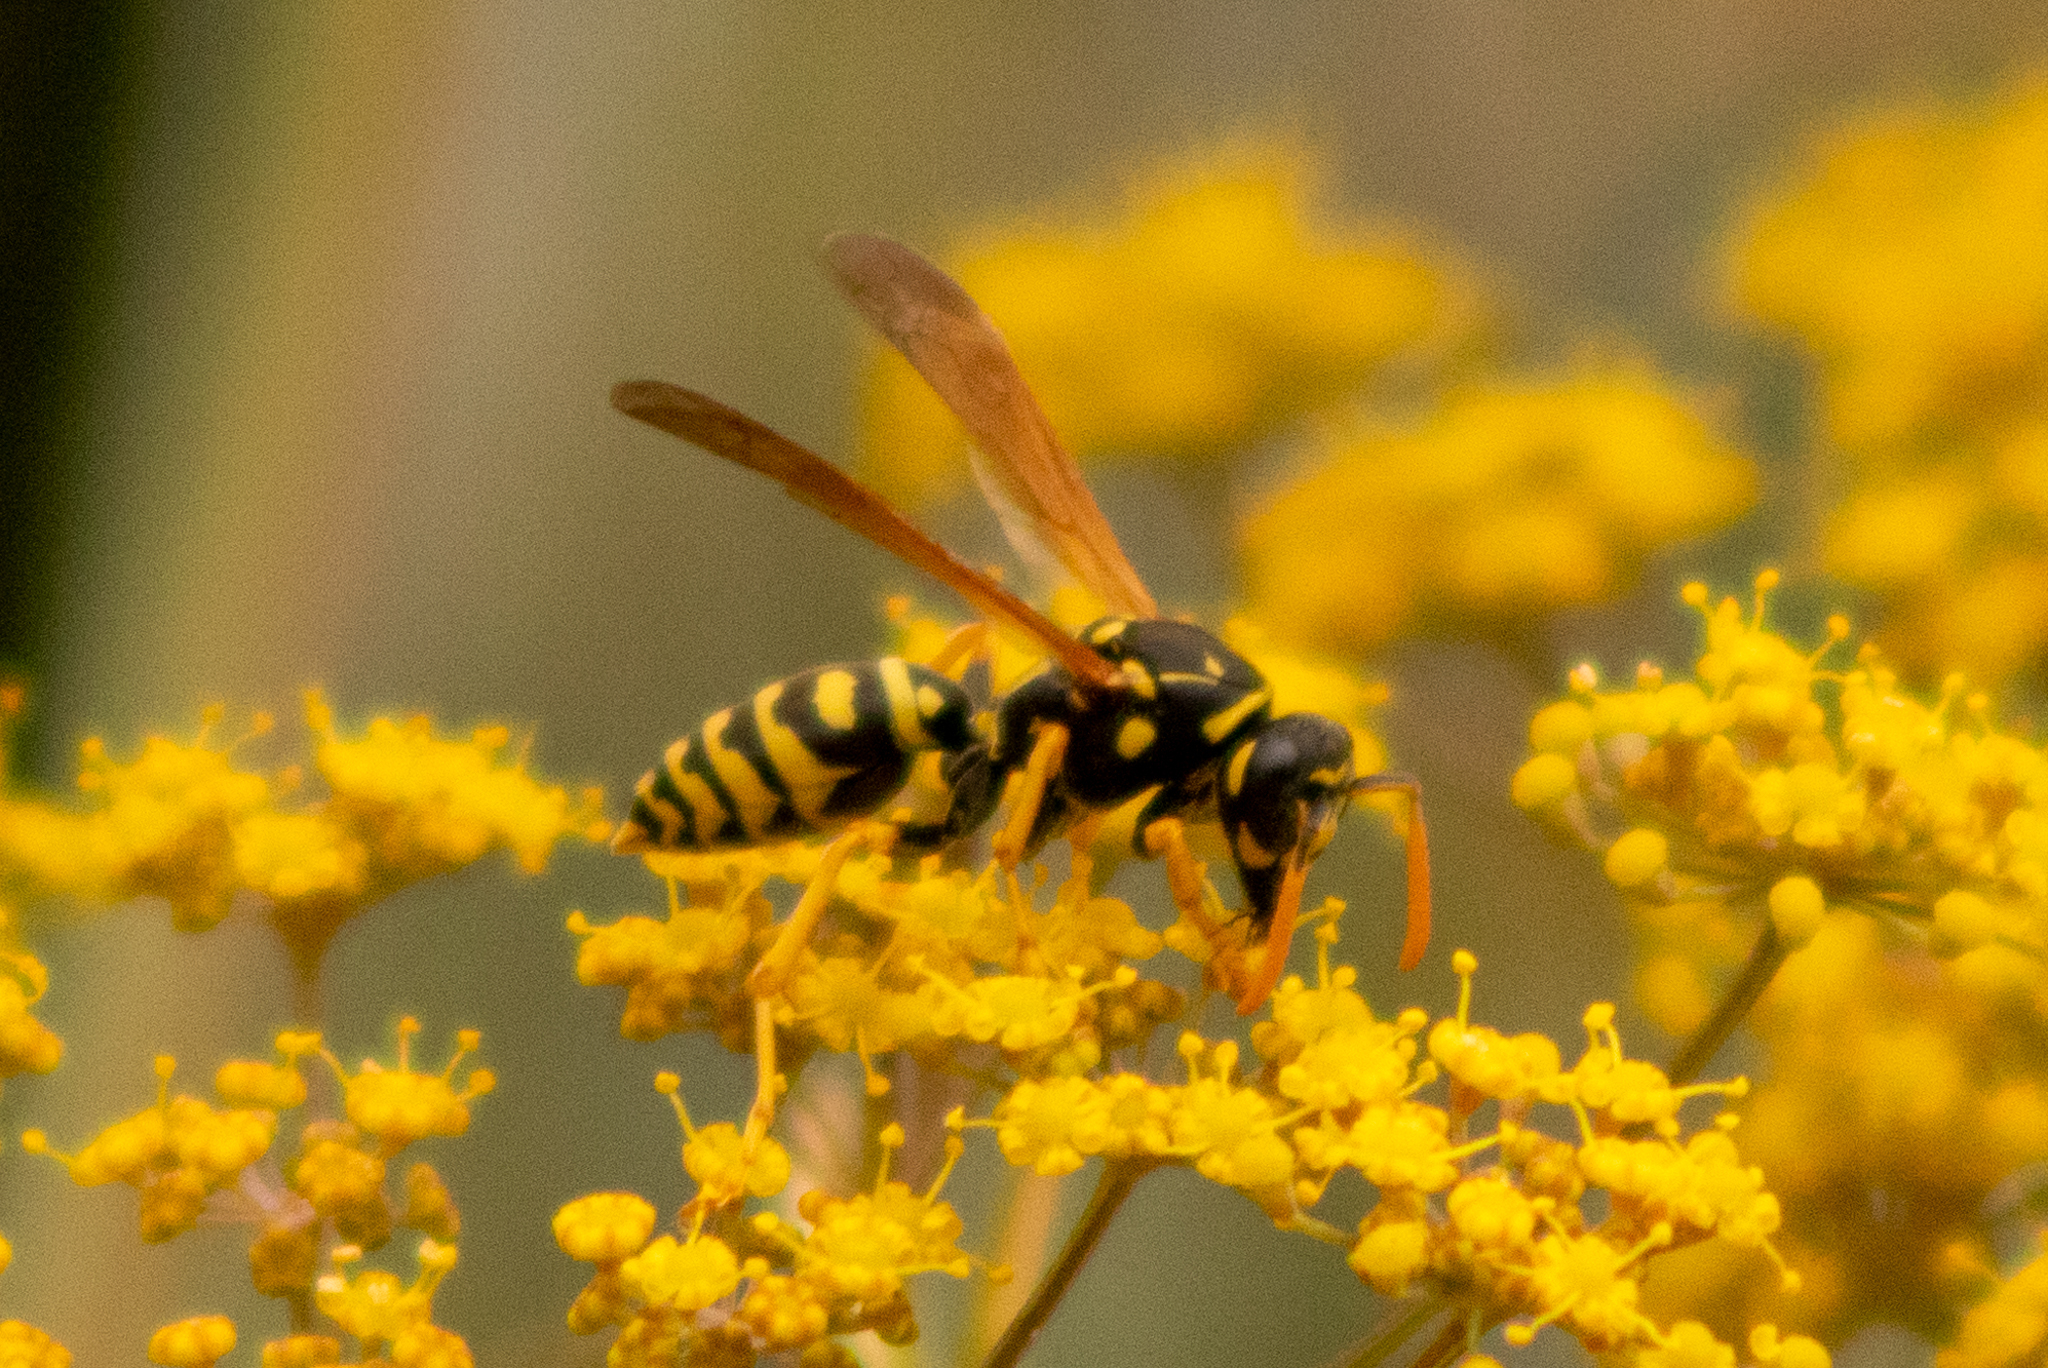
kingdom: Animalia
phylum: Arthropoda
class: Insecta
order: Hymenoptera
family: Eumenidae
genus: Polistes
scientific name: Polistes dominula
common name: Paper wasp
